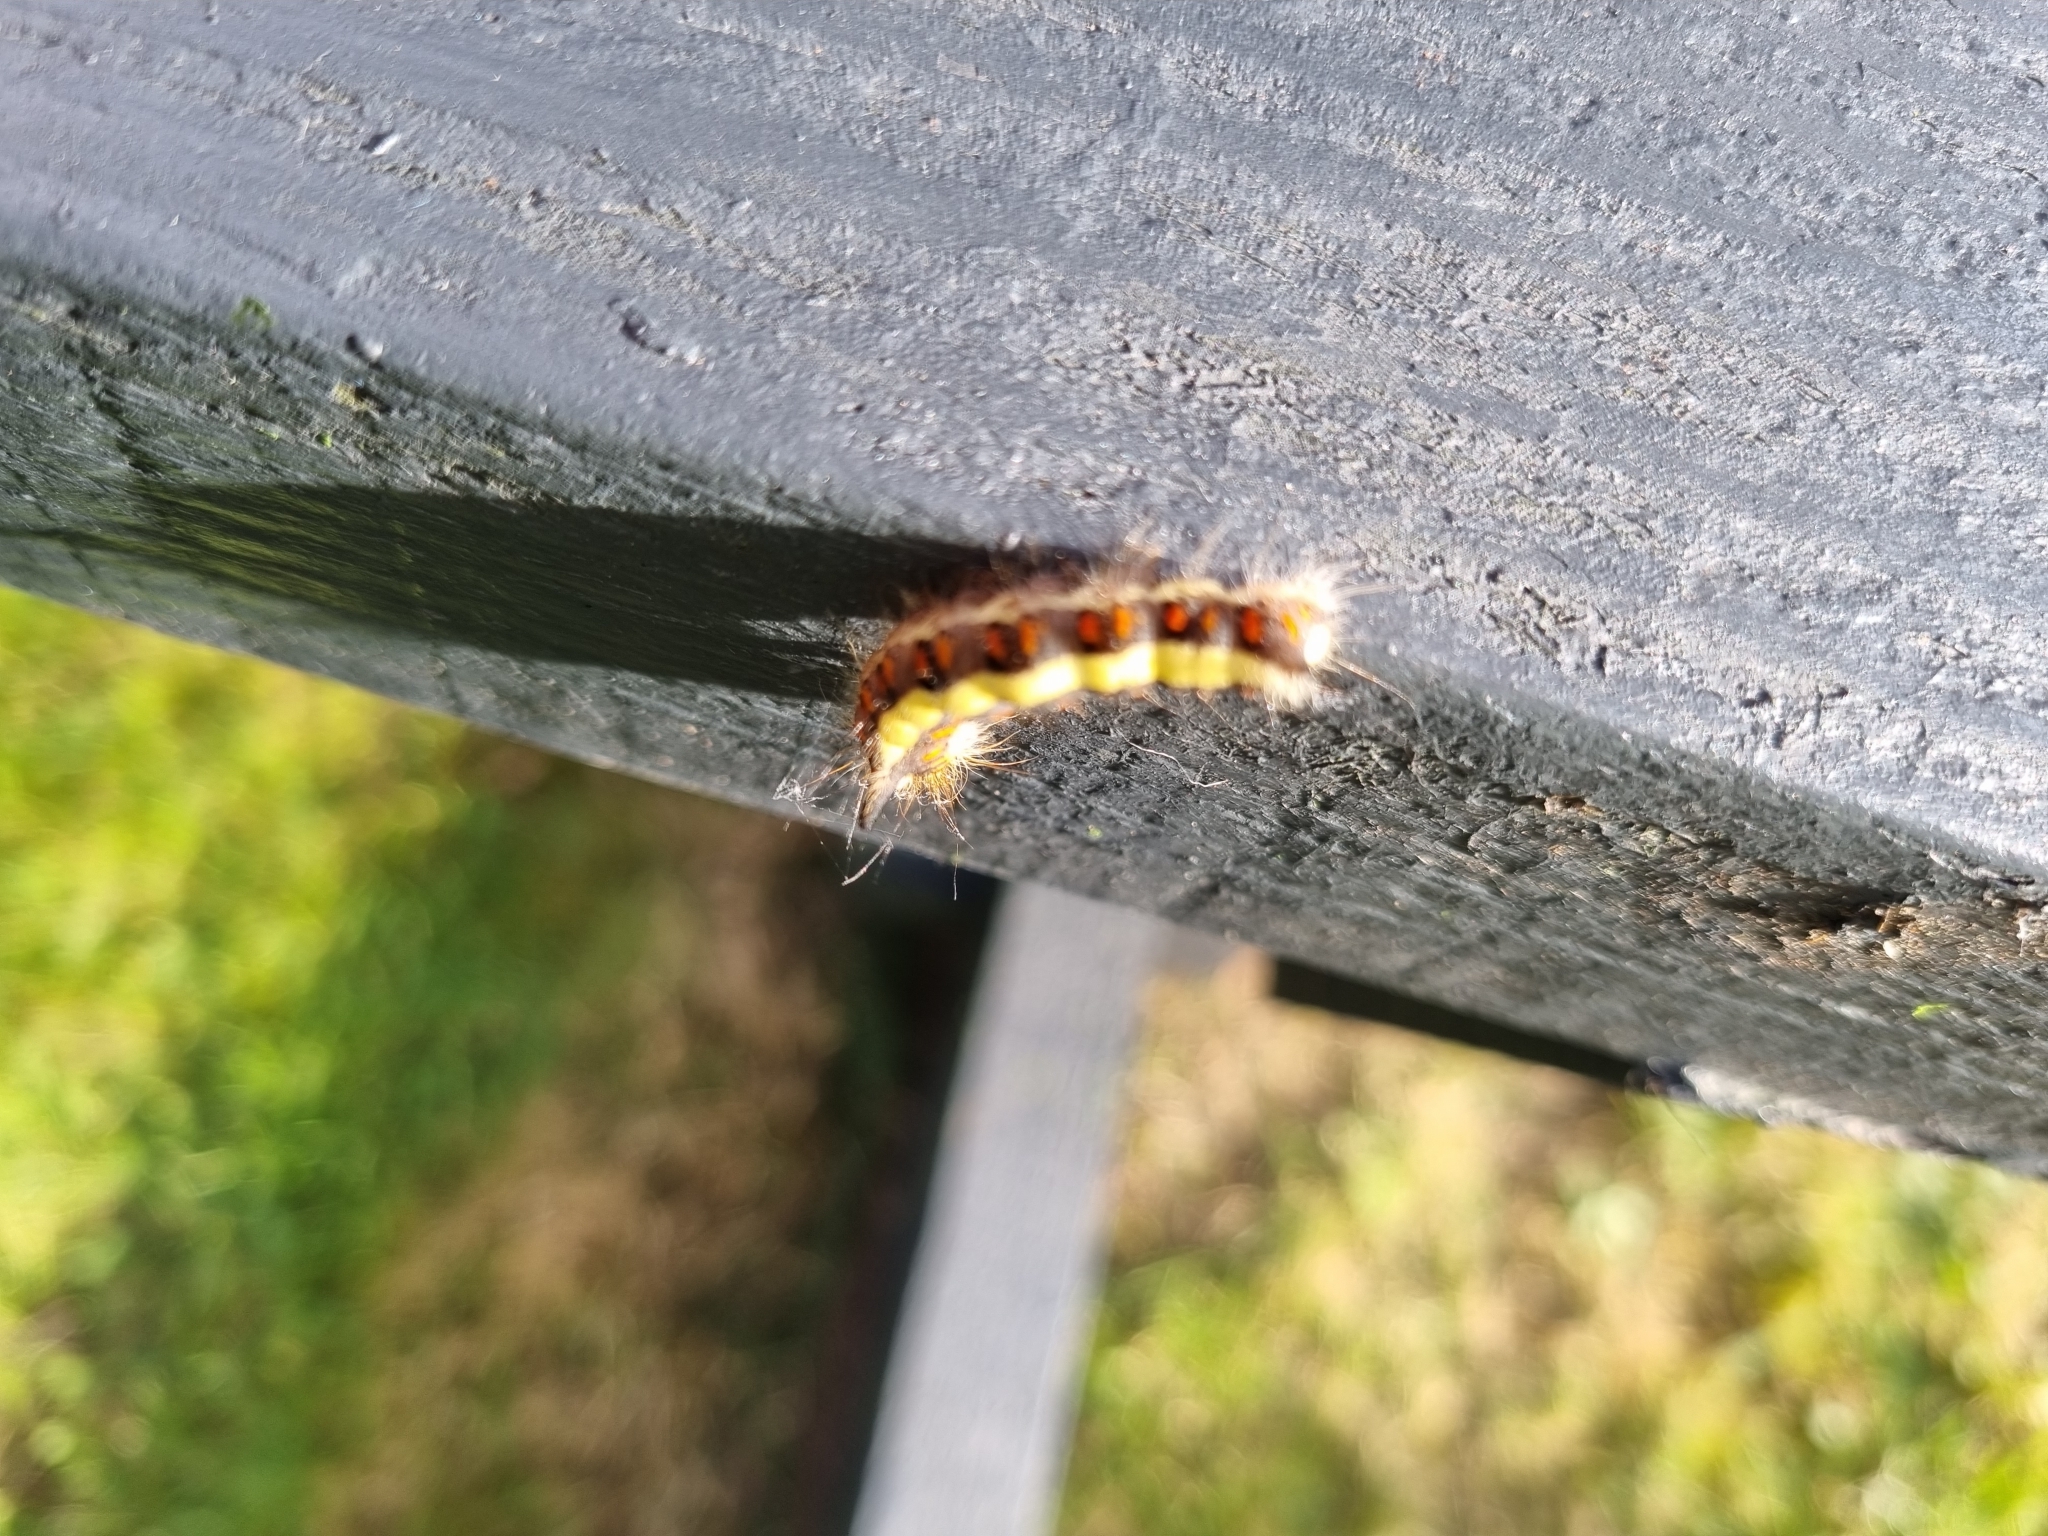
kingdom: Animalia
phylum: Arthropoda
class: Insecta
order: Lepidoptera
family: Noctuidae
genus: Acronicta
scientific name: Acronicta psi
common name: Grey dagger
